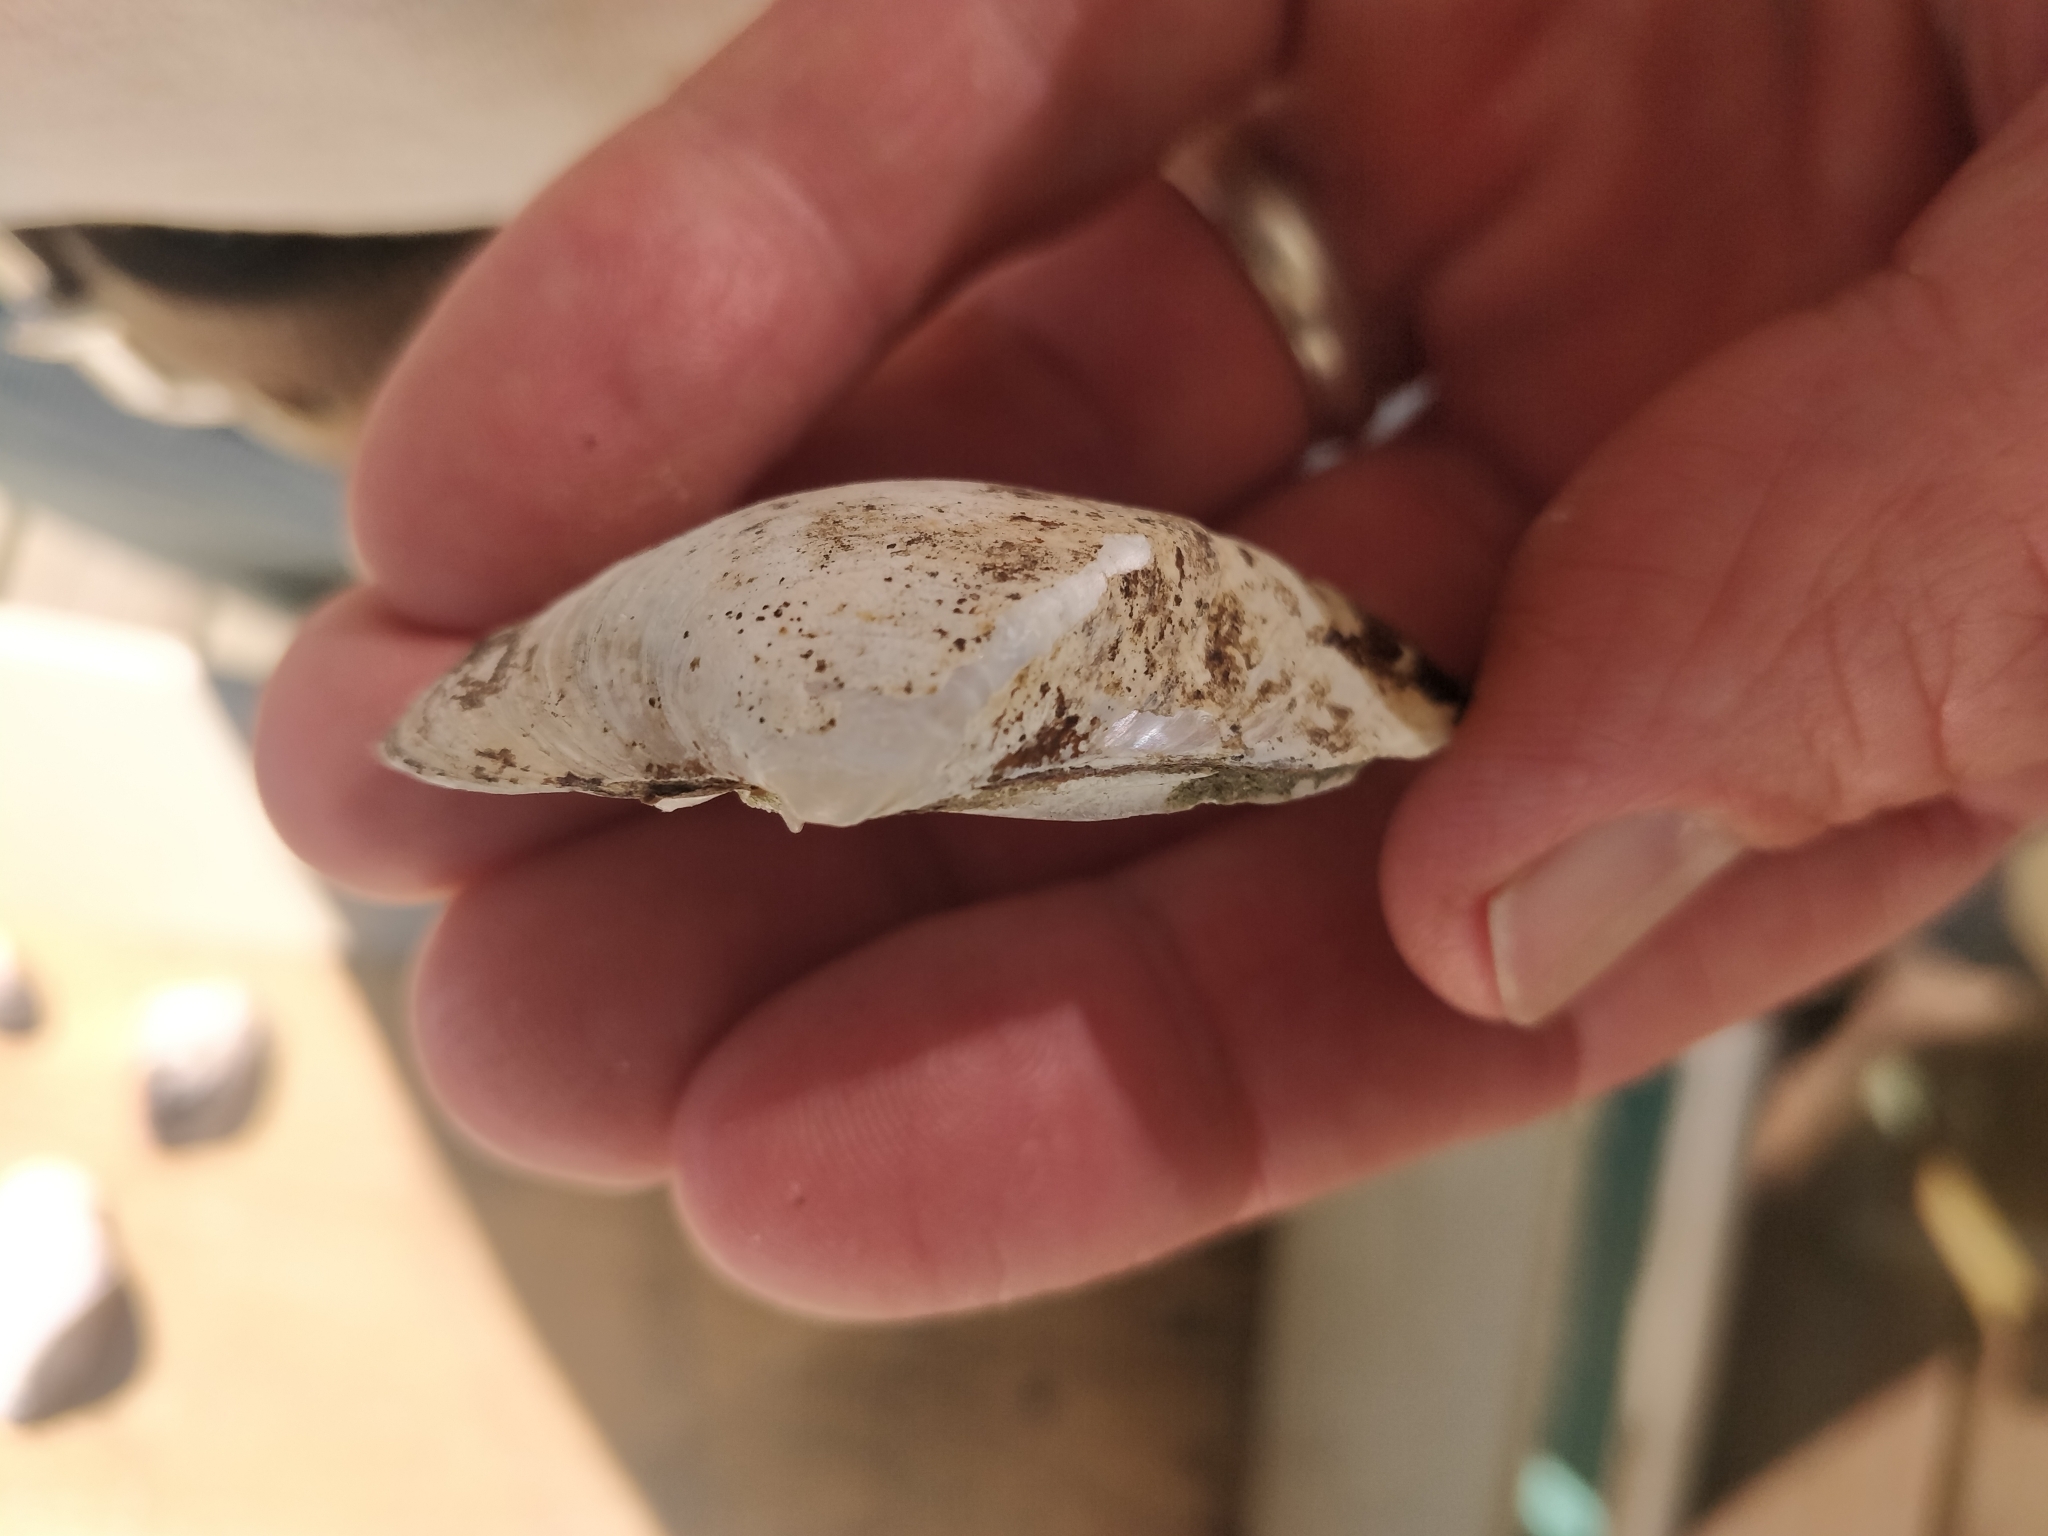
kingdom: Animalia
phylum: Mollusca
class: Bivalvia
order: Unionida
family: Unionidae
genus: Truncilla
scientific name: Truncilla truncata
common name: Deertoe
